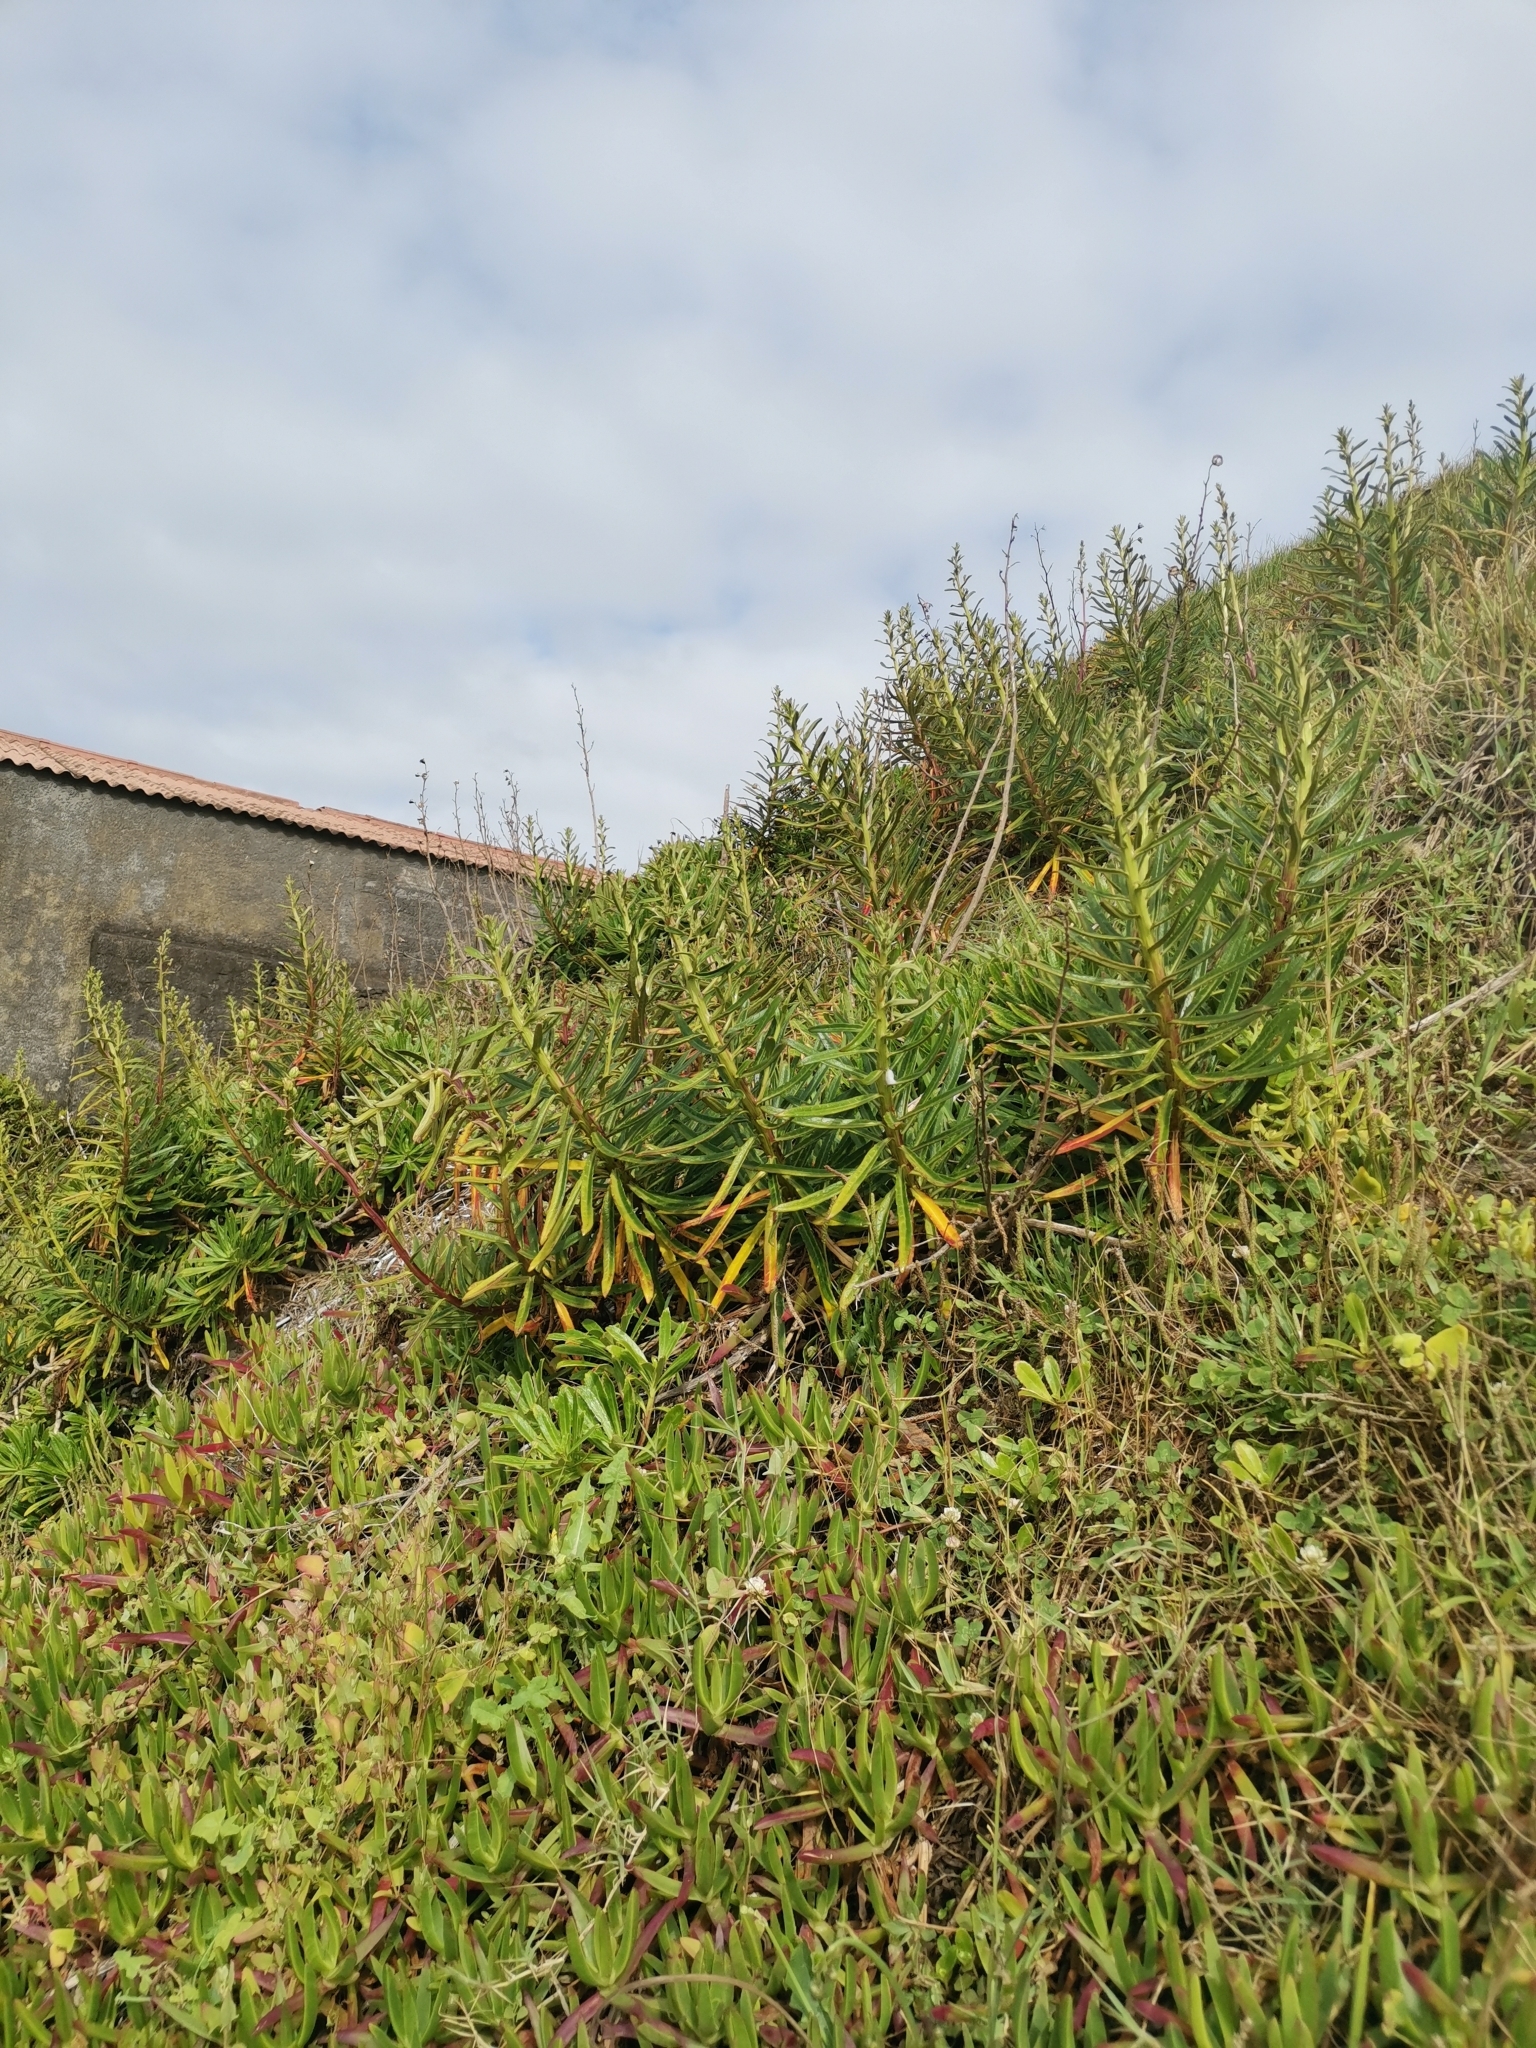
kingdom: Plantae
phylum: Tracheophyta
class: Magnoliopsida
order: Asterales
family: Campanulaceae
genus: Campanula
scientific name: Campanula vidalii
